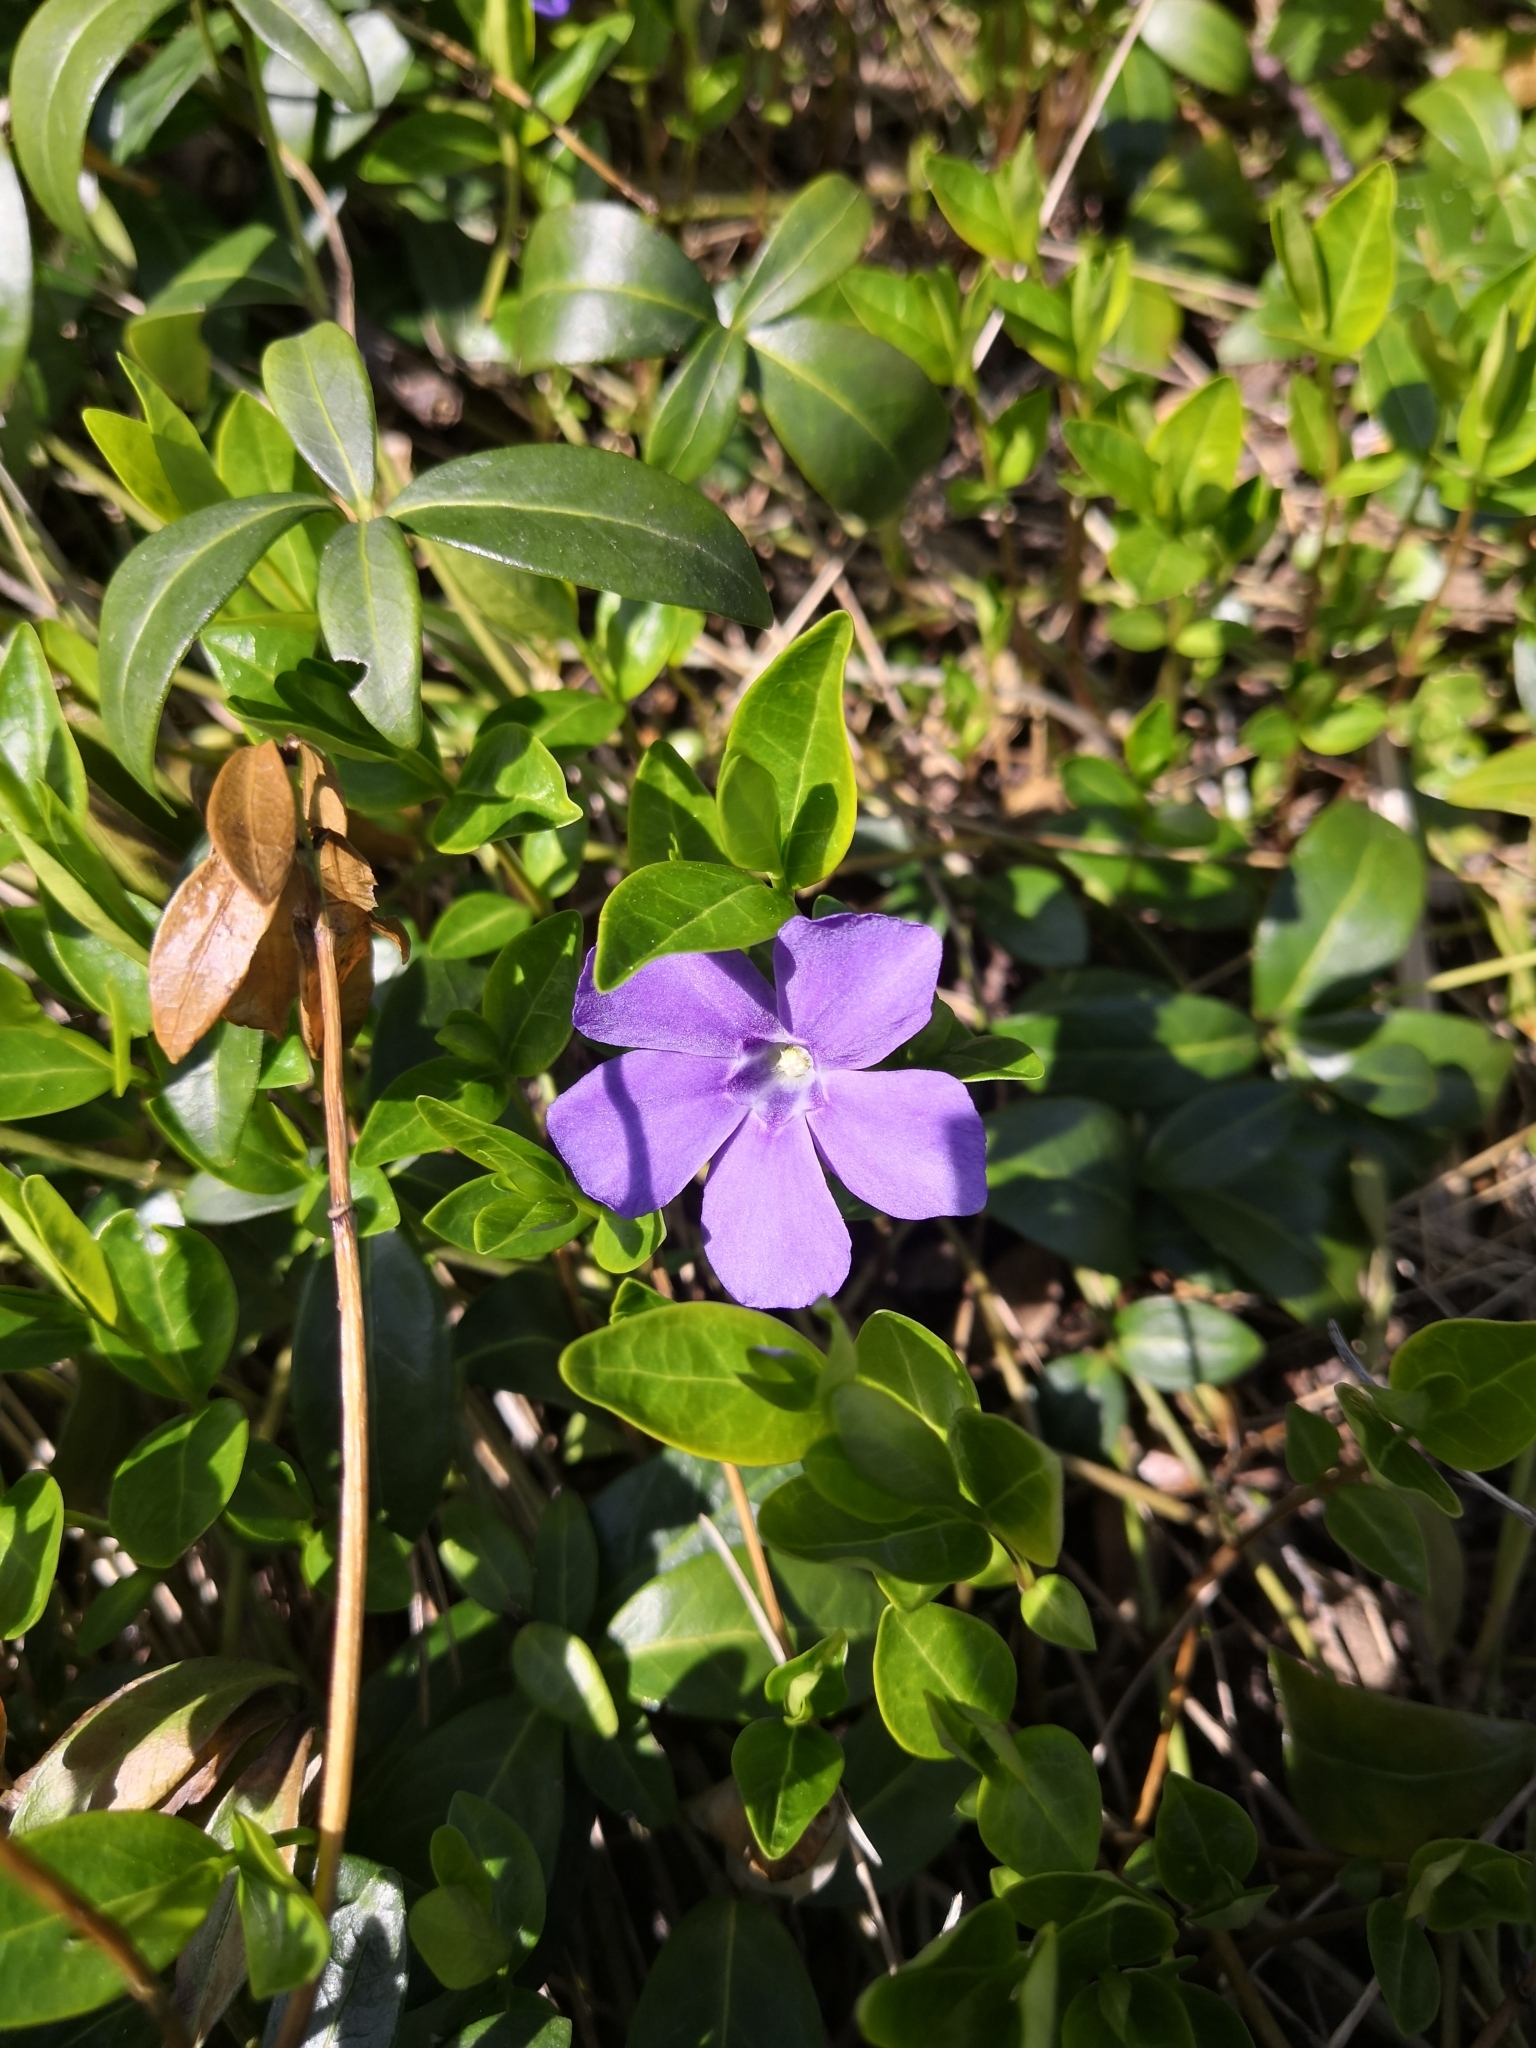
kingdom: Plantae
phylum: Tracheophyta
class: Magnoliopsida
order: Gentianales
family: Apocynaceae
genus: Vinca
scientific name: Vinca minor
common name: Lesser periwinkle
